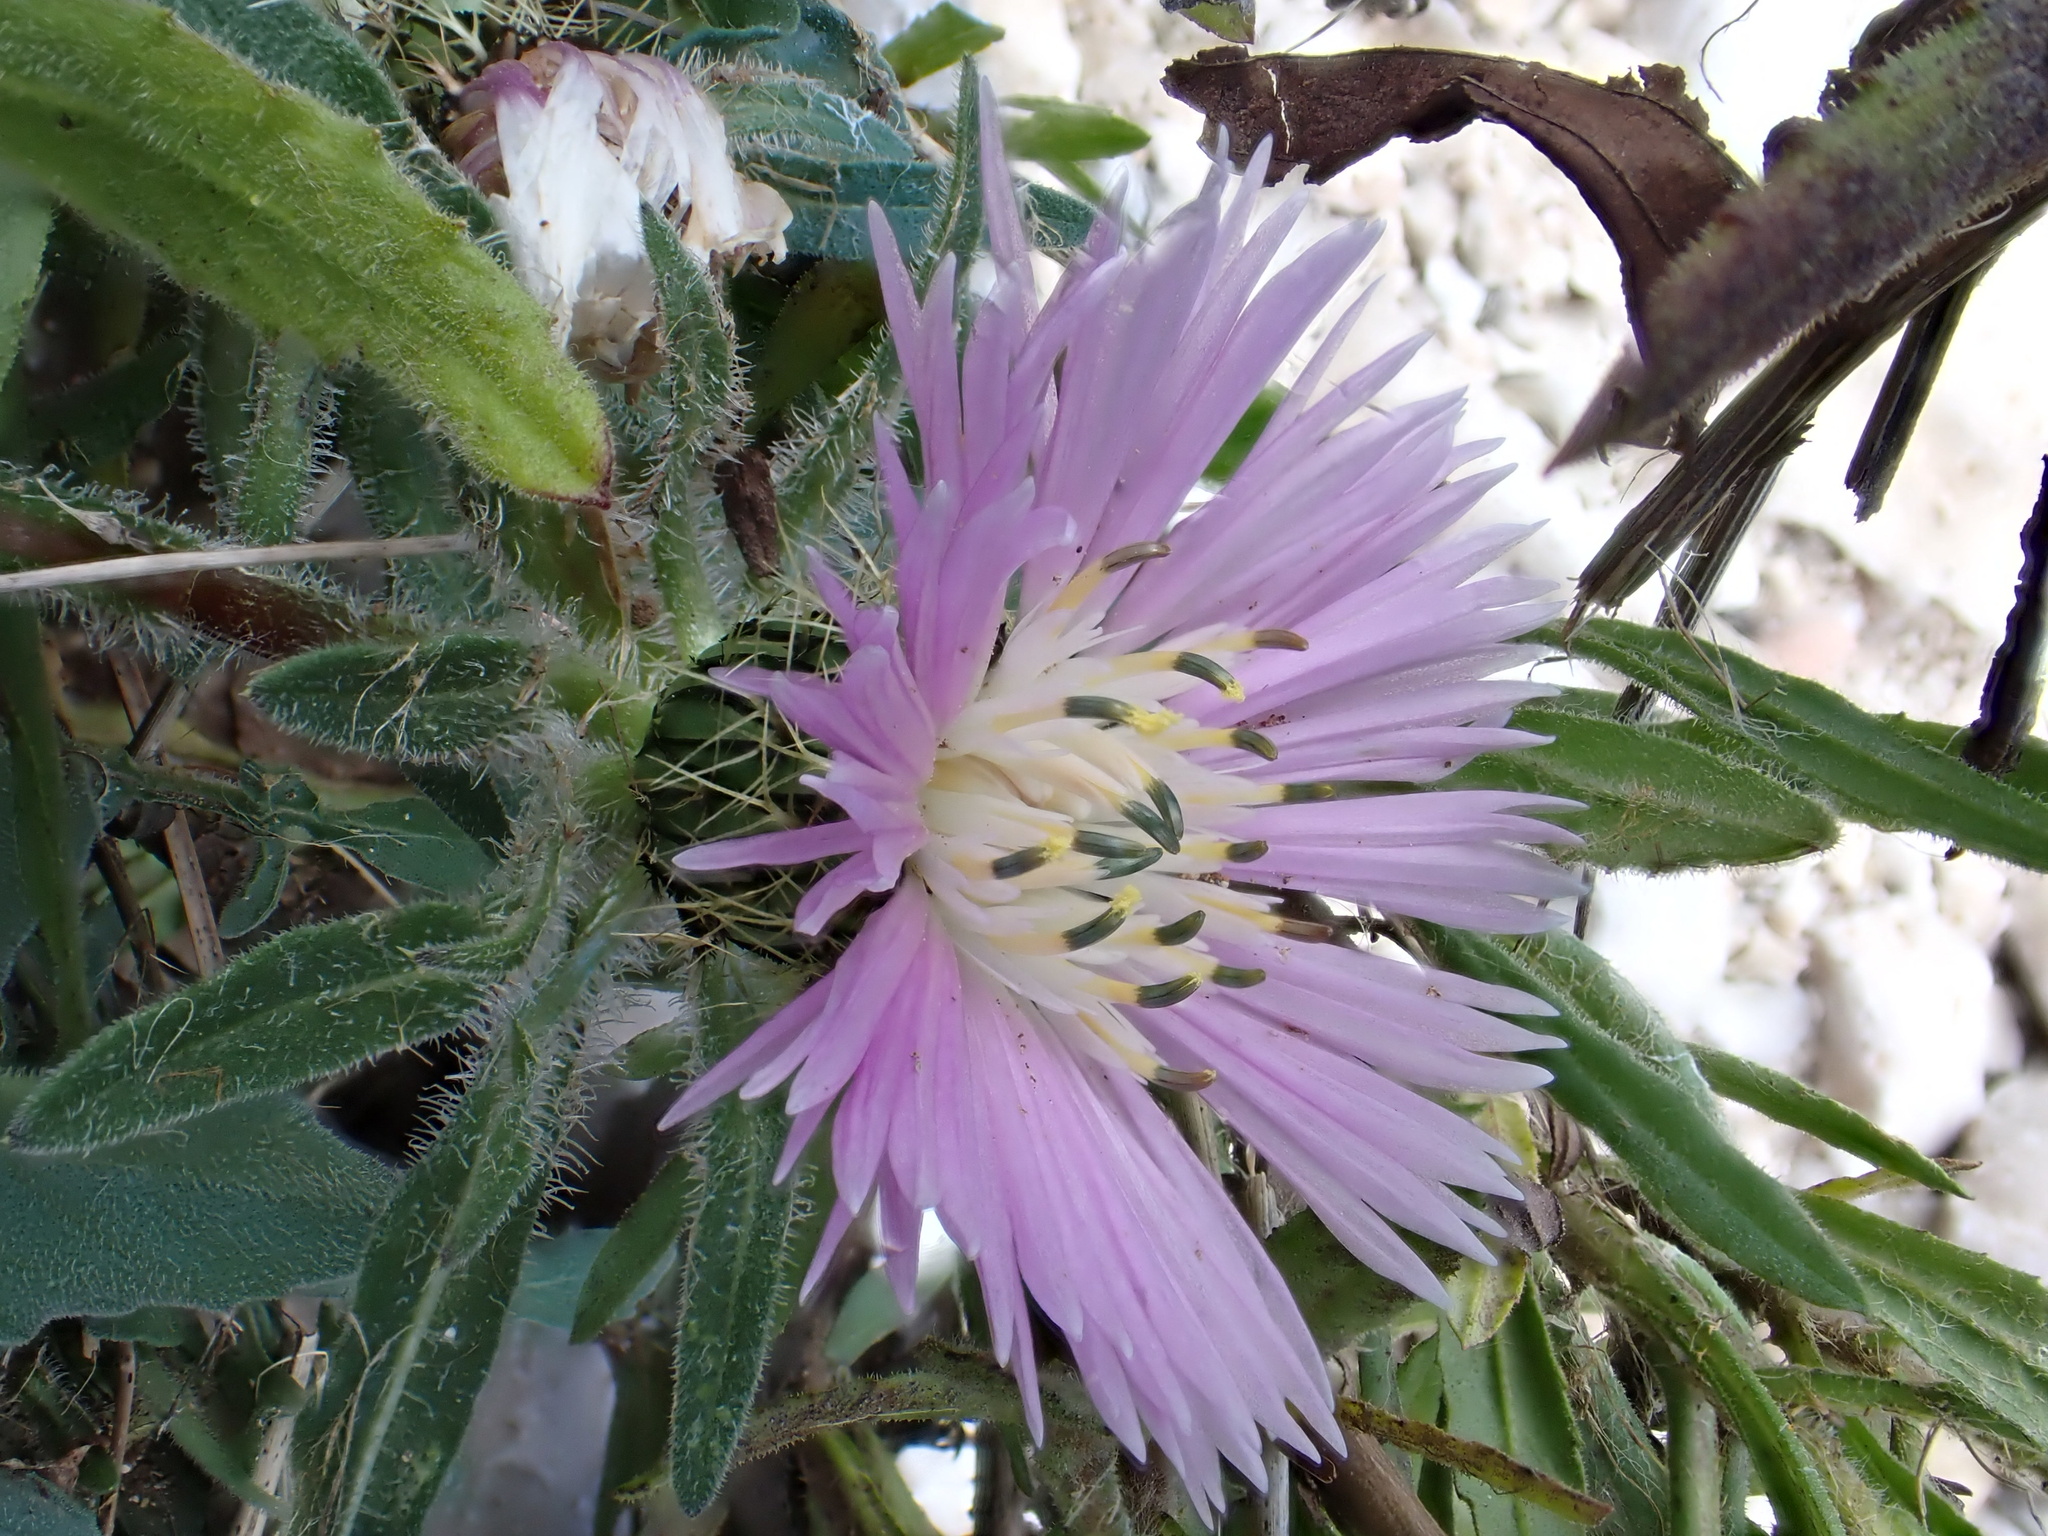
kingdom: Plantae
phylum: Tracheophyta
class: Magnoliopsida
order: Asterales
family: Asteraceae
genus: Centaurea
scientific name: Centaurea pullata
